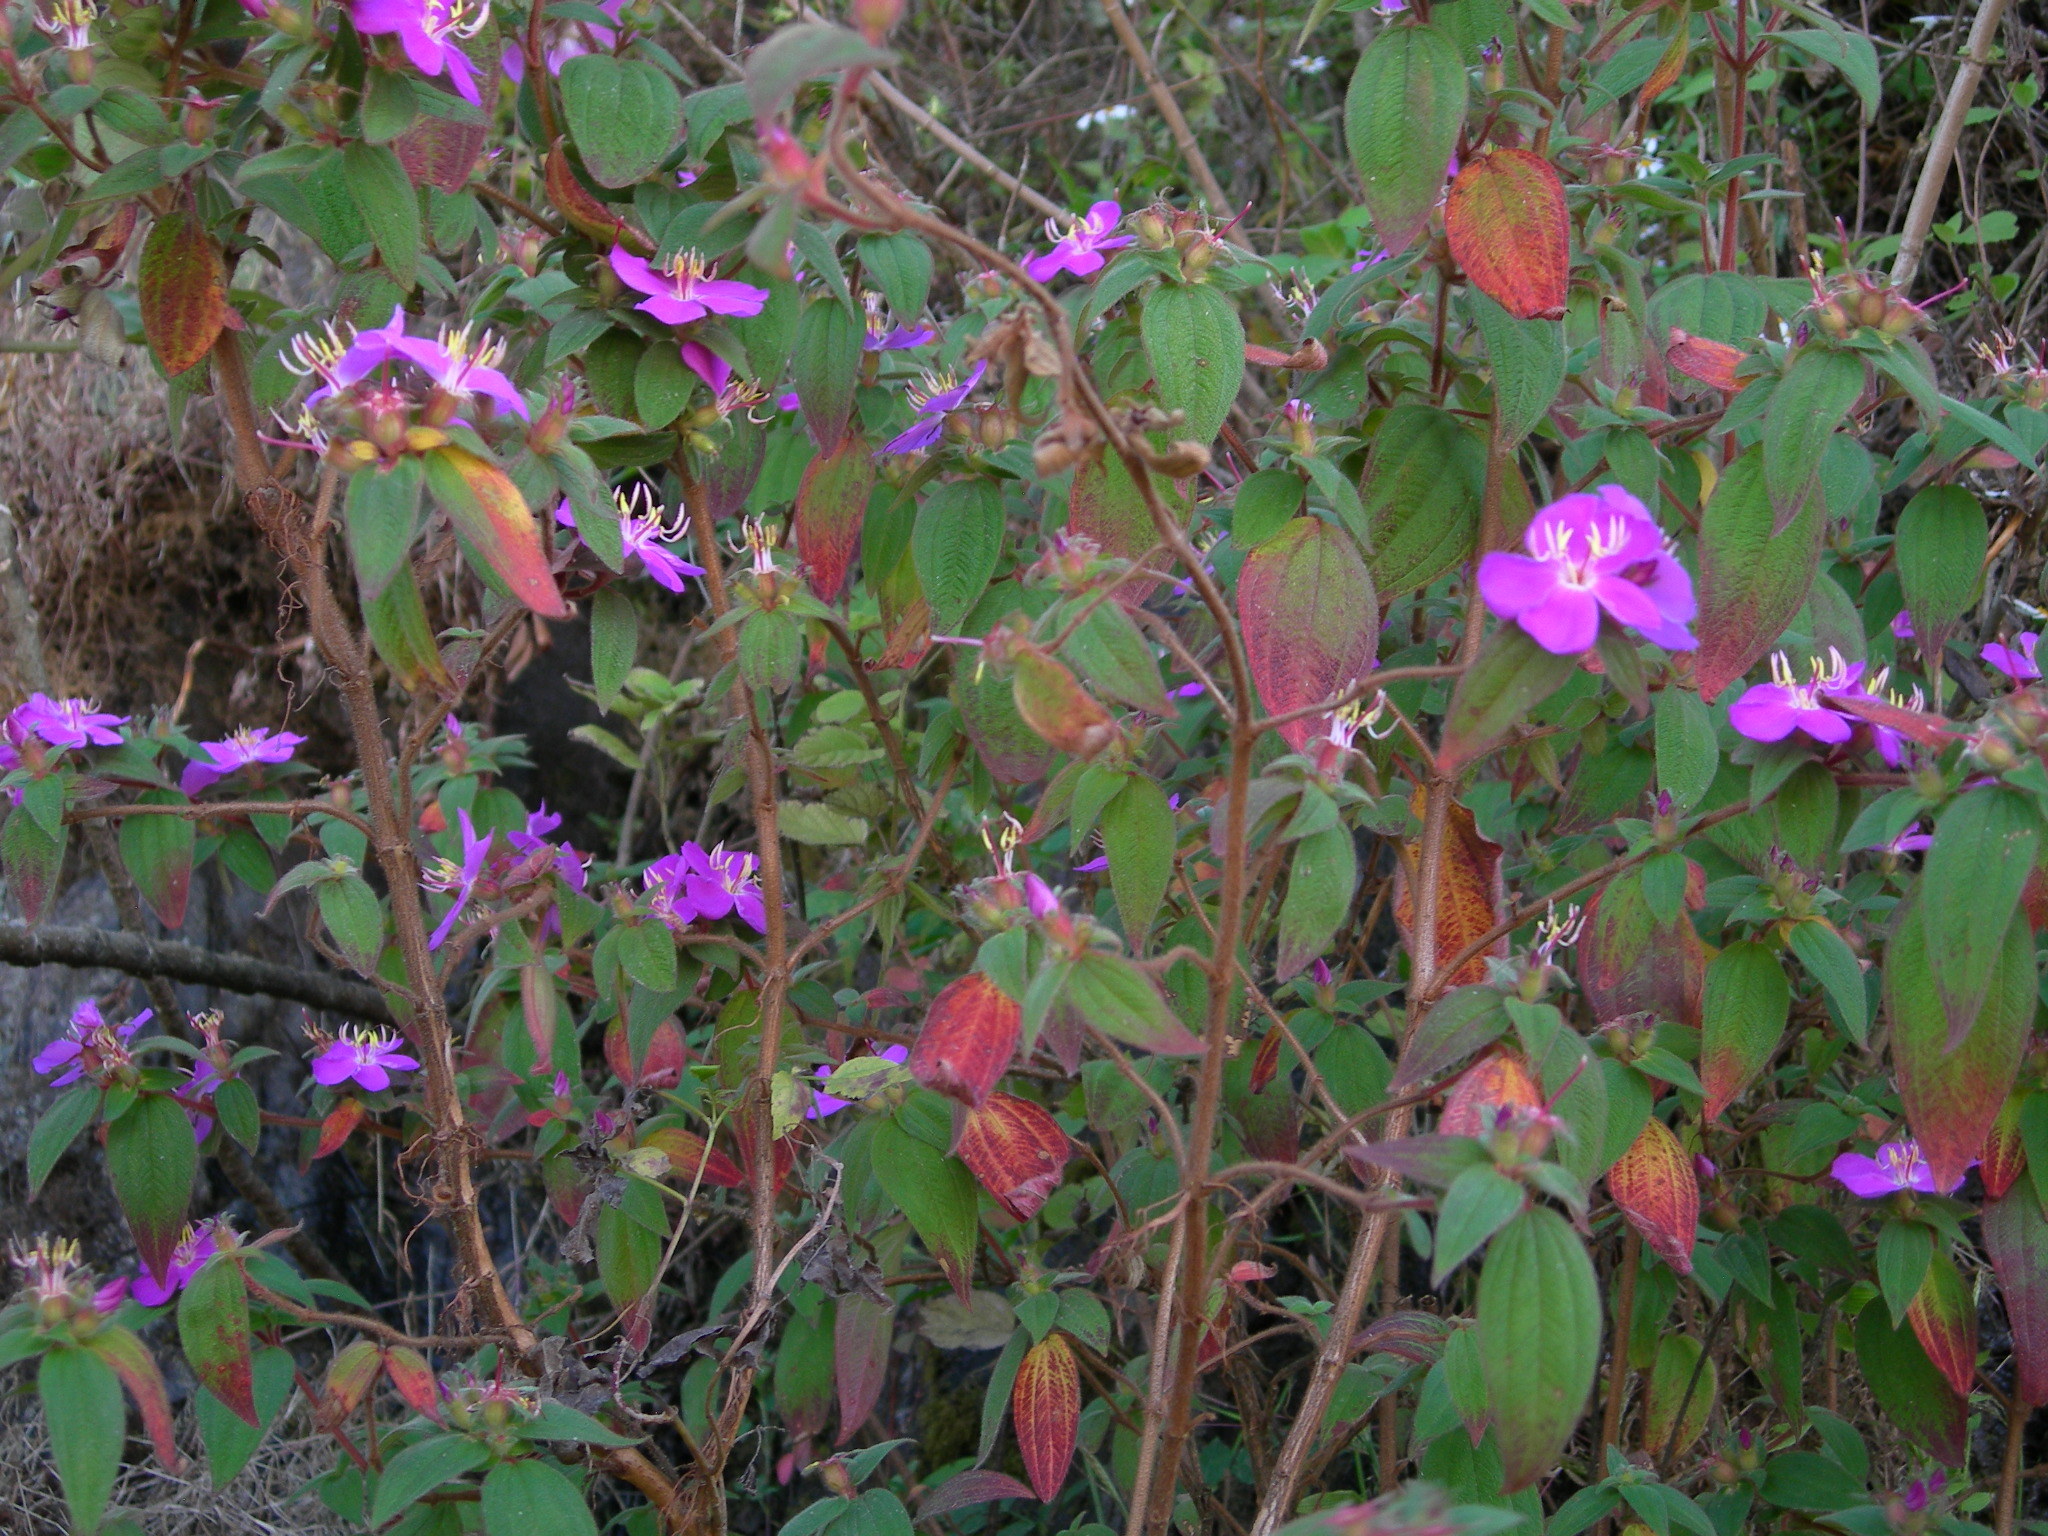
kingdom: Plantae
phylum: Tracheophyta
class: Magnoliopsida
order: Myrtales
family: Melastomataceae
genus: Chaetogastra
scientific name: Chaetogastra longisepala
